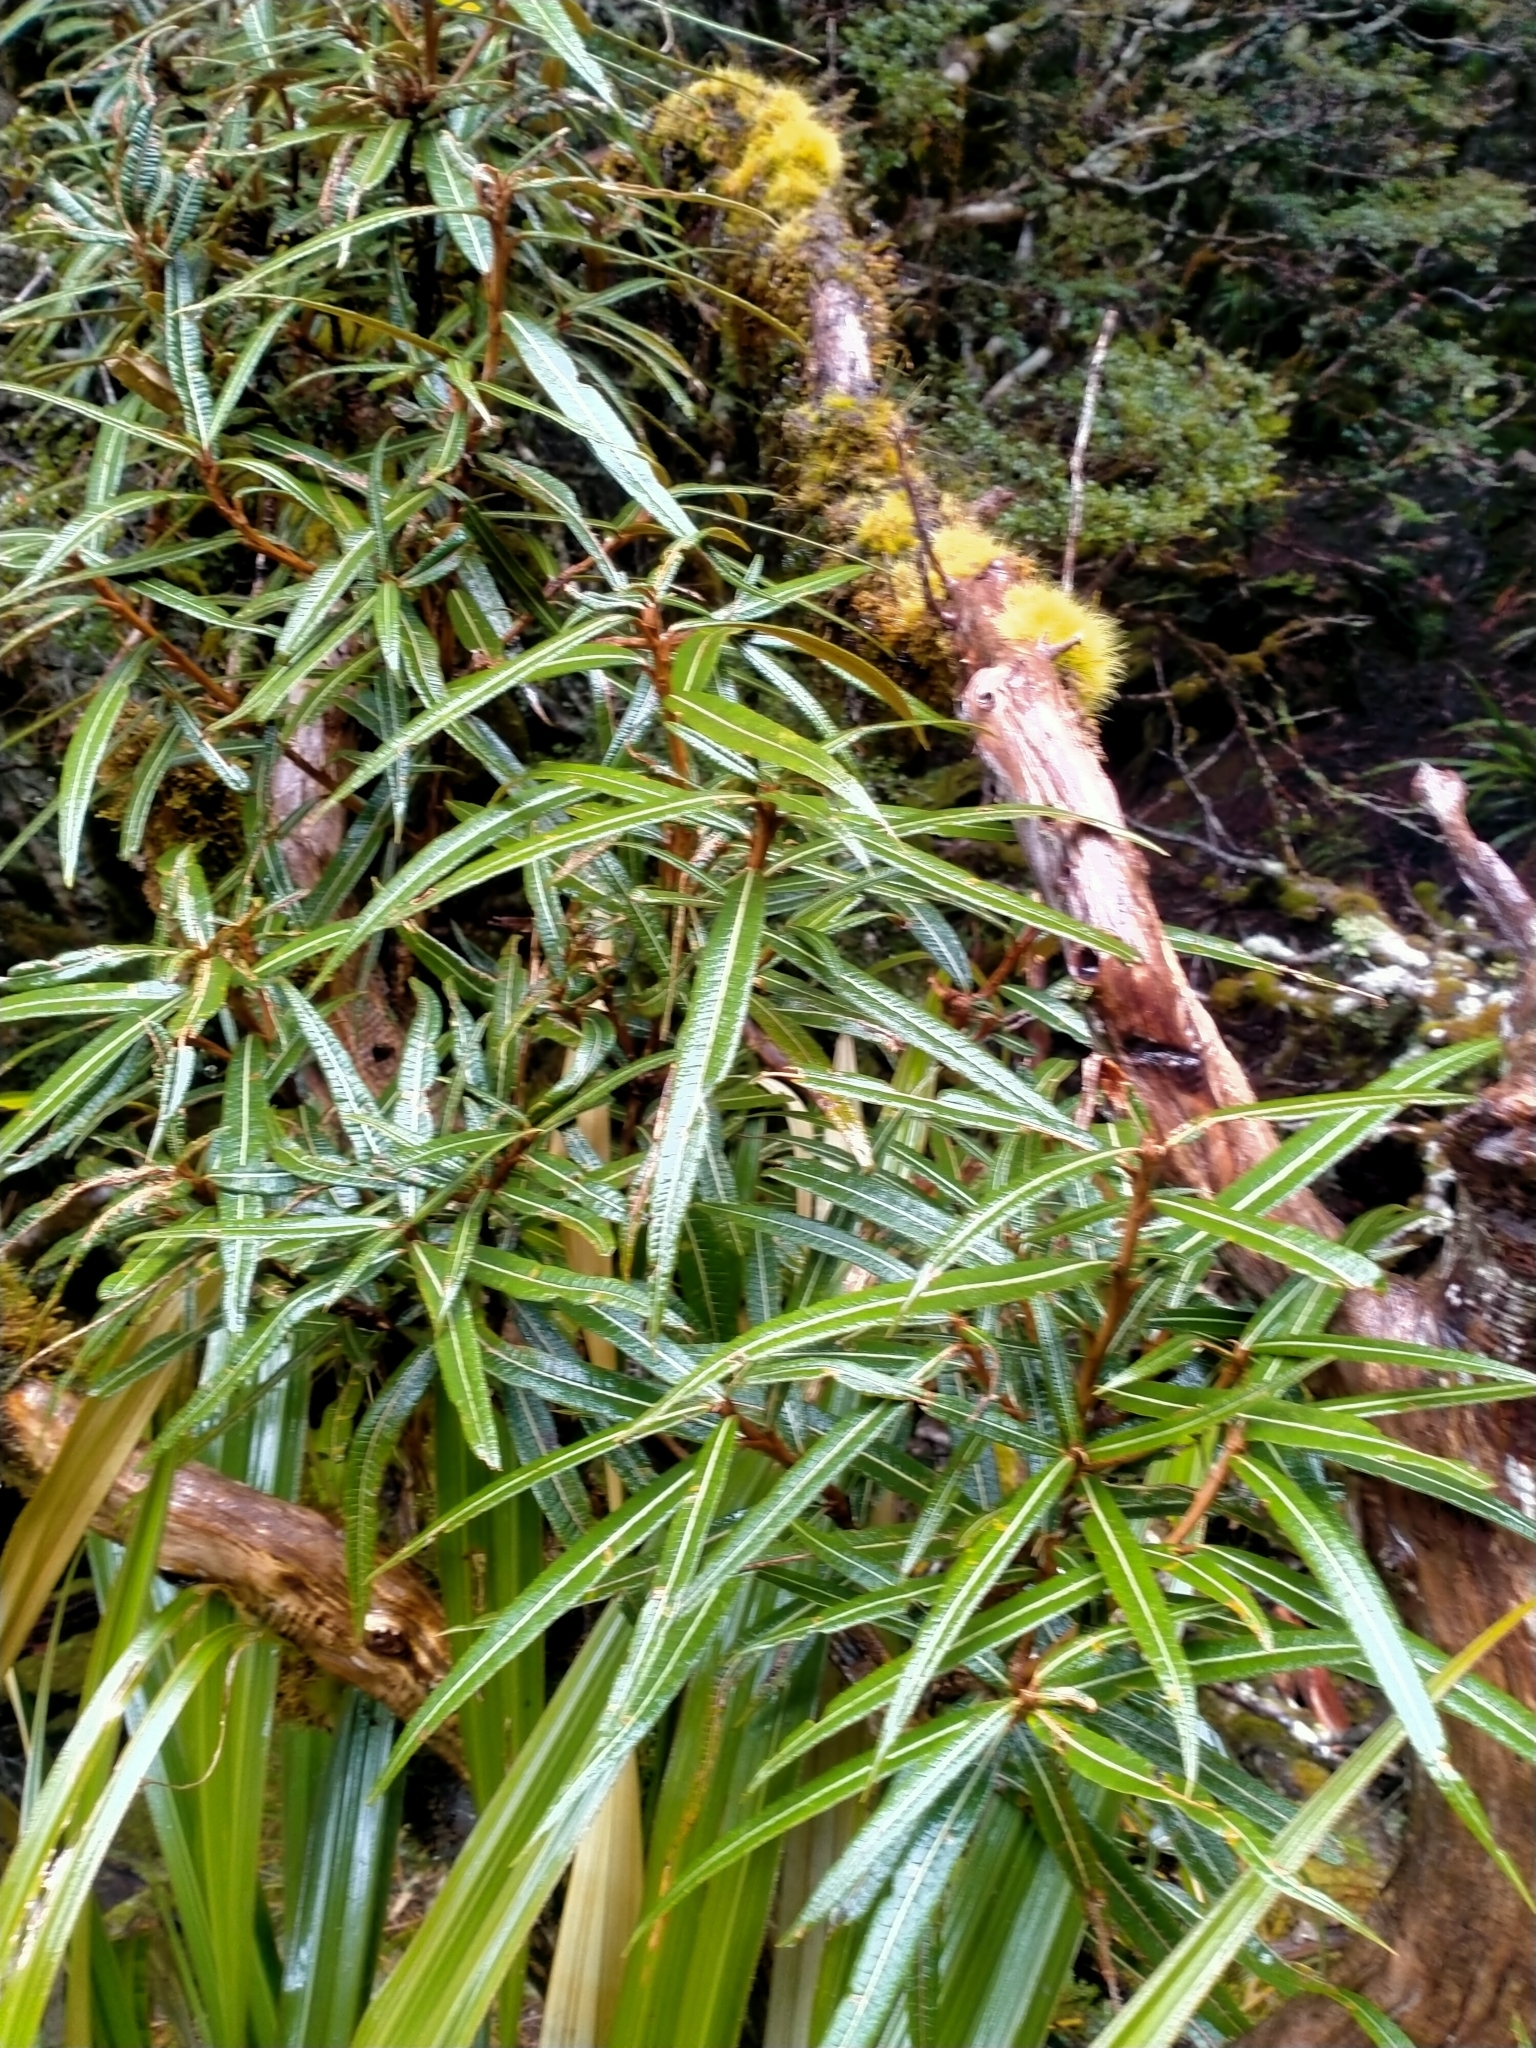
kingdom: Plantae
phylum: Tracheophyta
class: Magnoliopsida
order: Asterales
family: Asteraceae
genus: Olearia
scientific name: Olearia lacunosa
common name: Lancewood tree daisy
